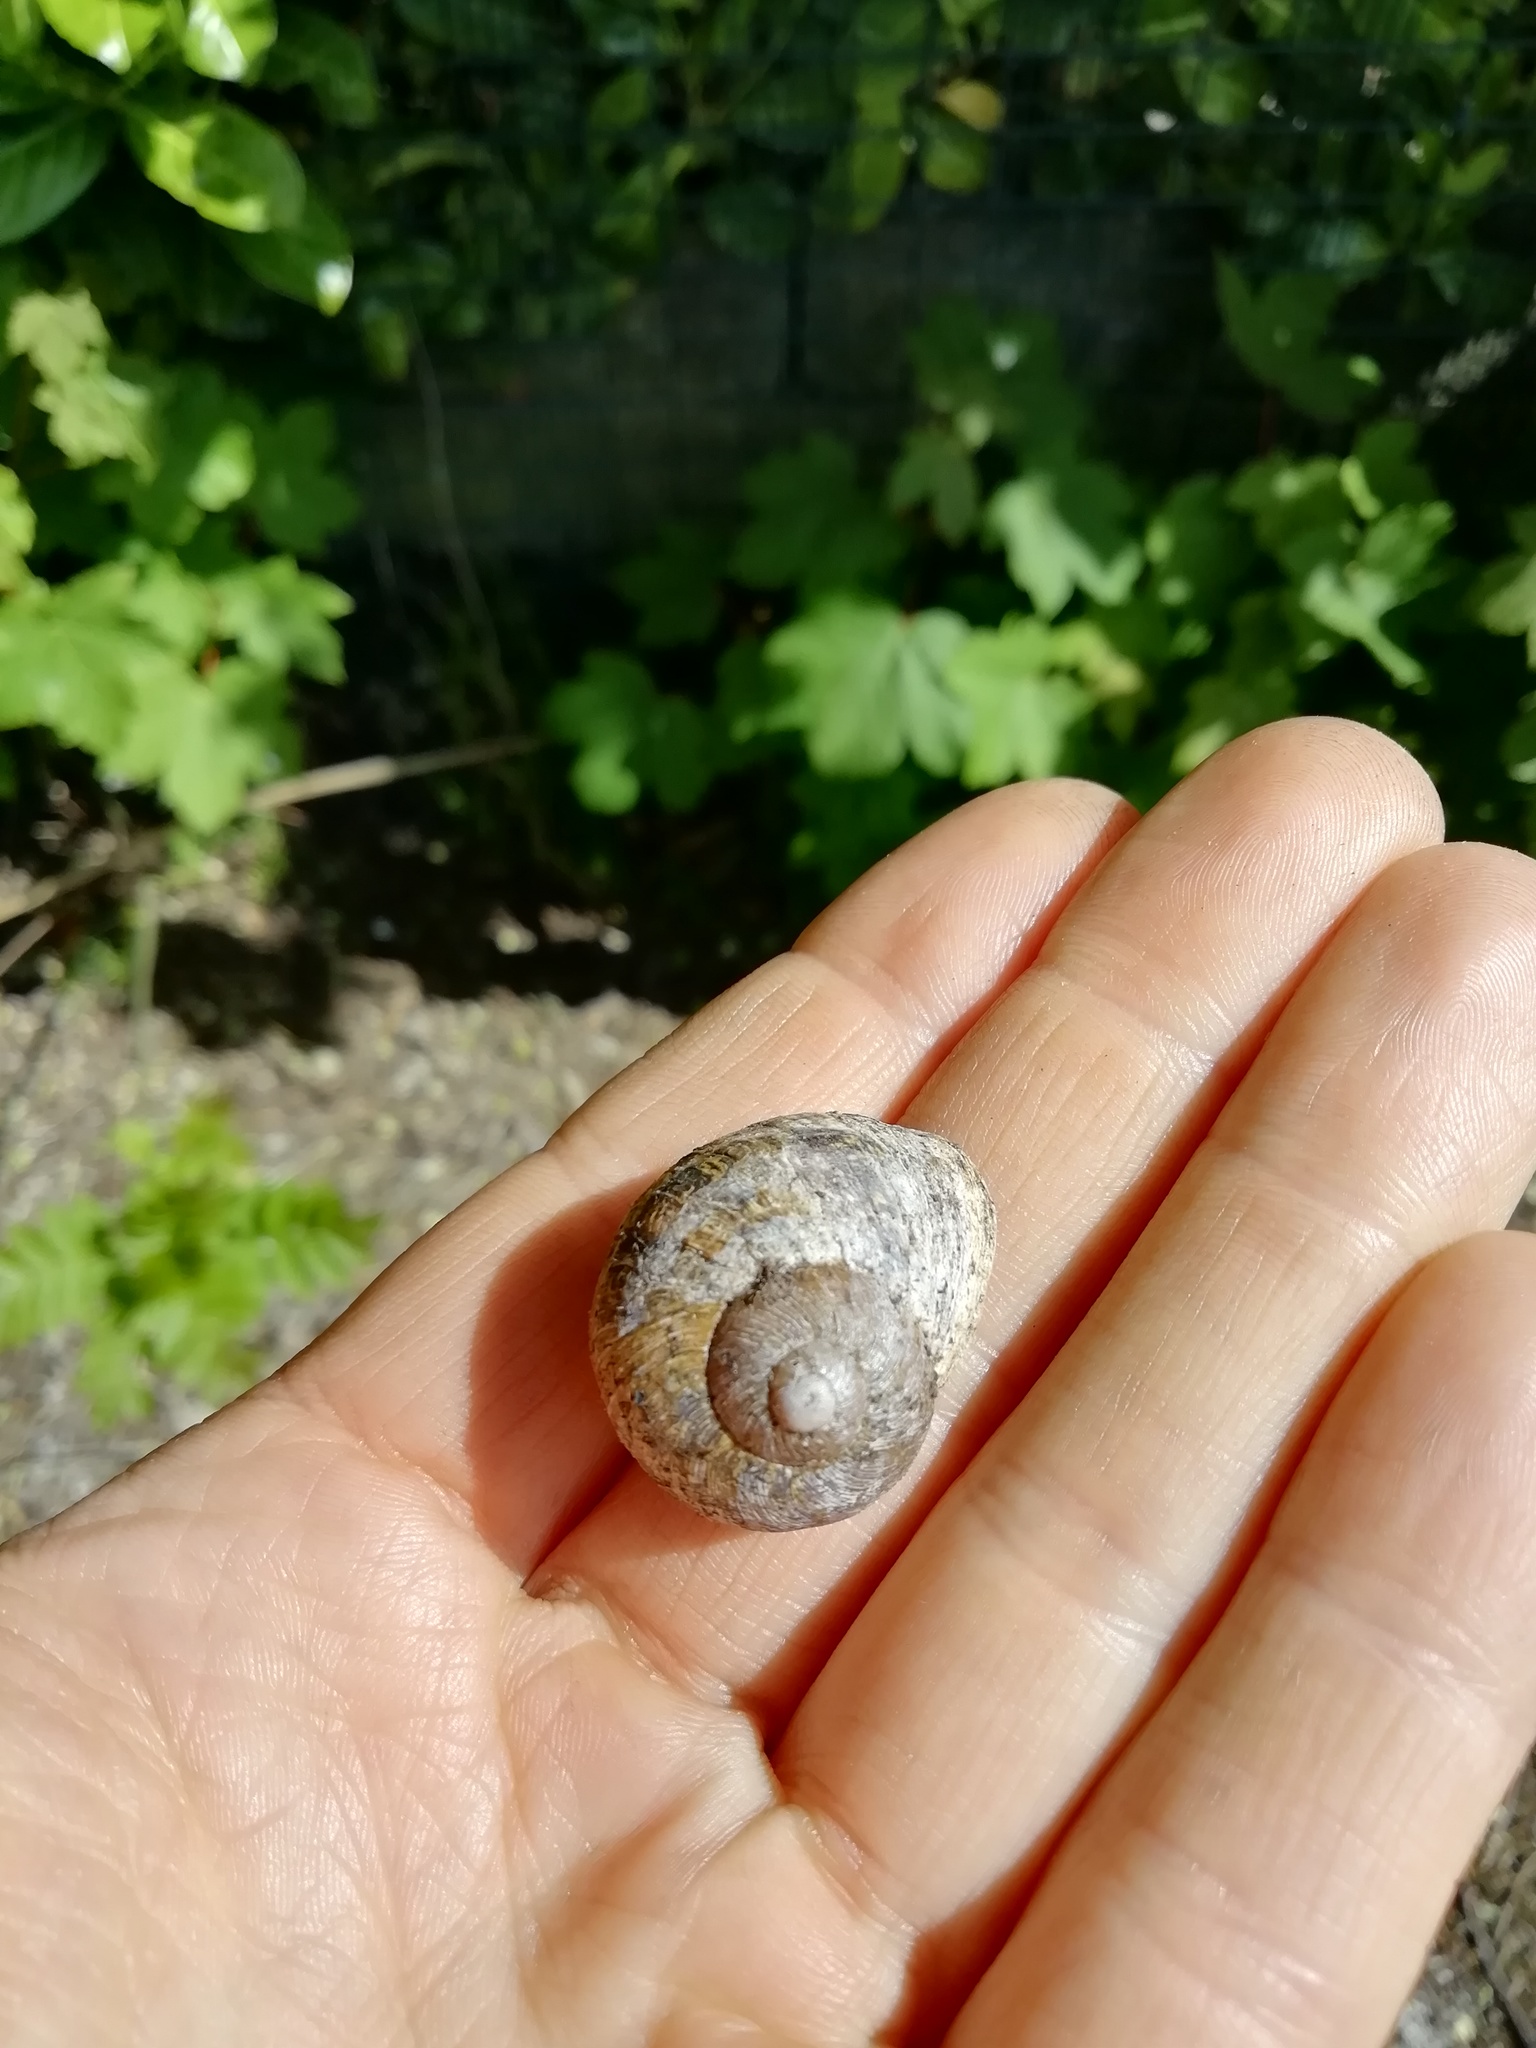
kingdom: Animalia
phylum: Mollusca
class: Gastropoda
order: Stylommatophora
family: Helicidae
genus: Cornu
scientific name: Cornu aspersum
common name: Brown garden snail
